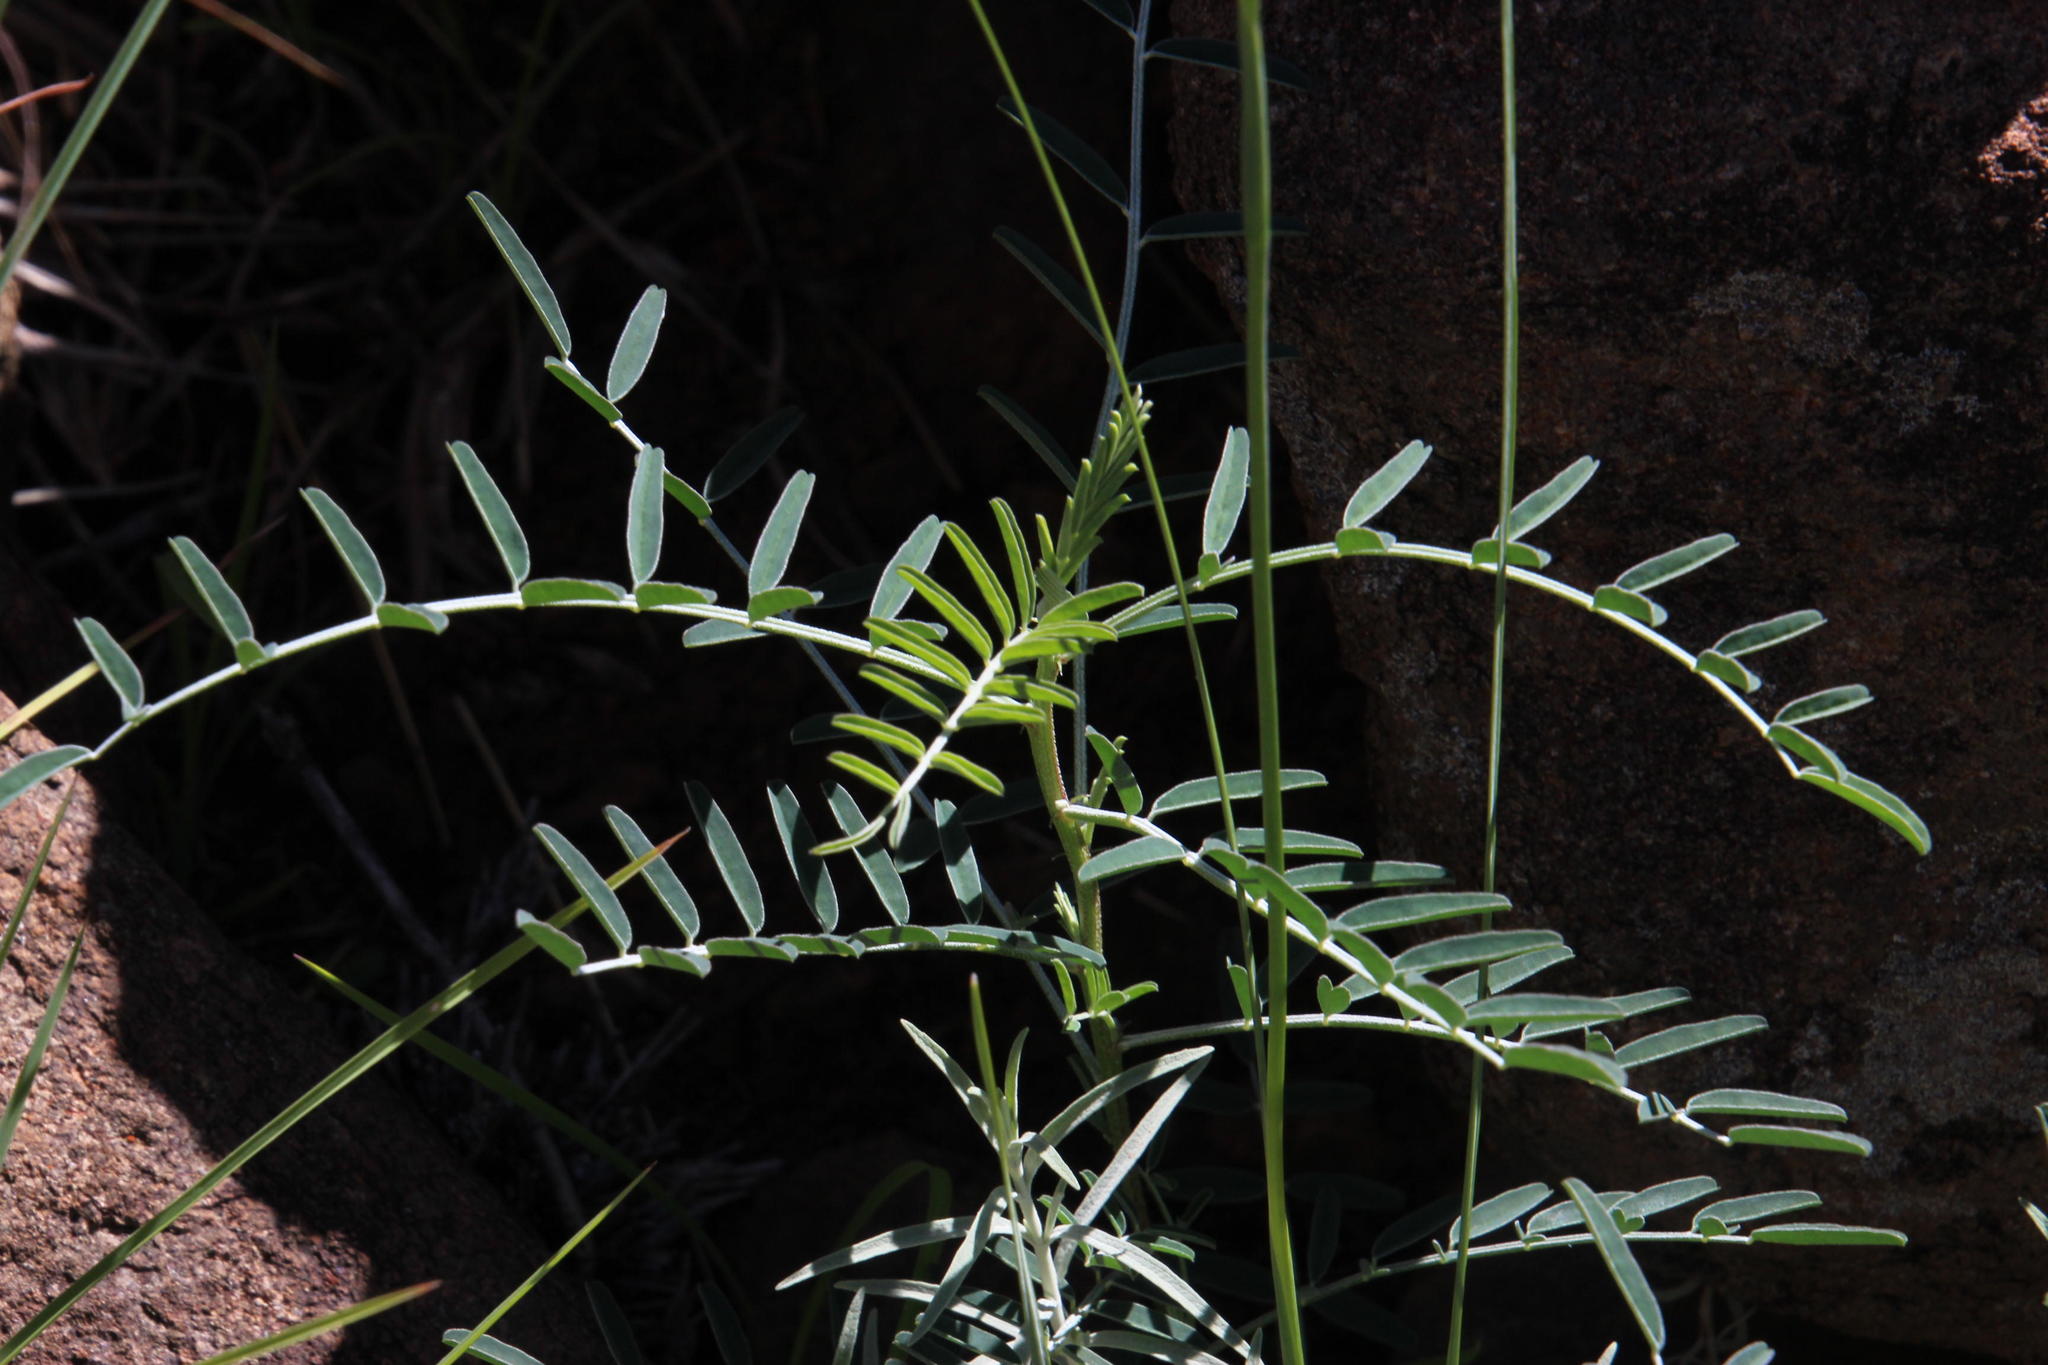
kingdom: Plantae
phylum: Tracheophyta
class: Magnoliopsida
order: Fabales
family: Fabaceae
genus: Lessertia
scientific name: Lessertia frutescens
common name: Balloon-pea
